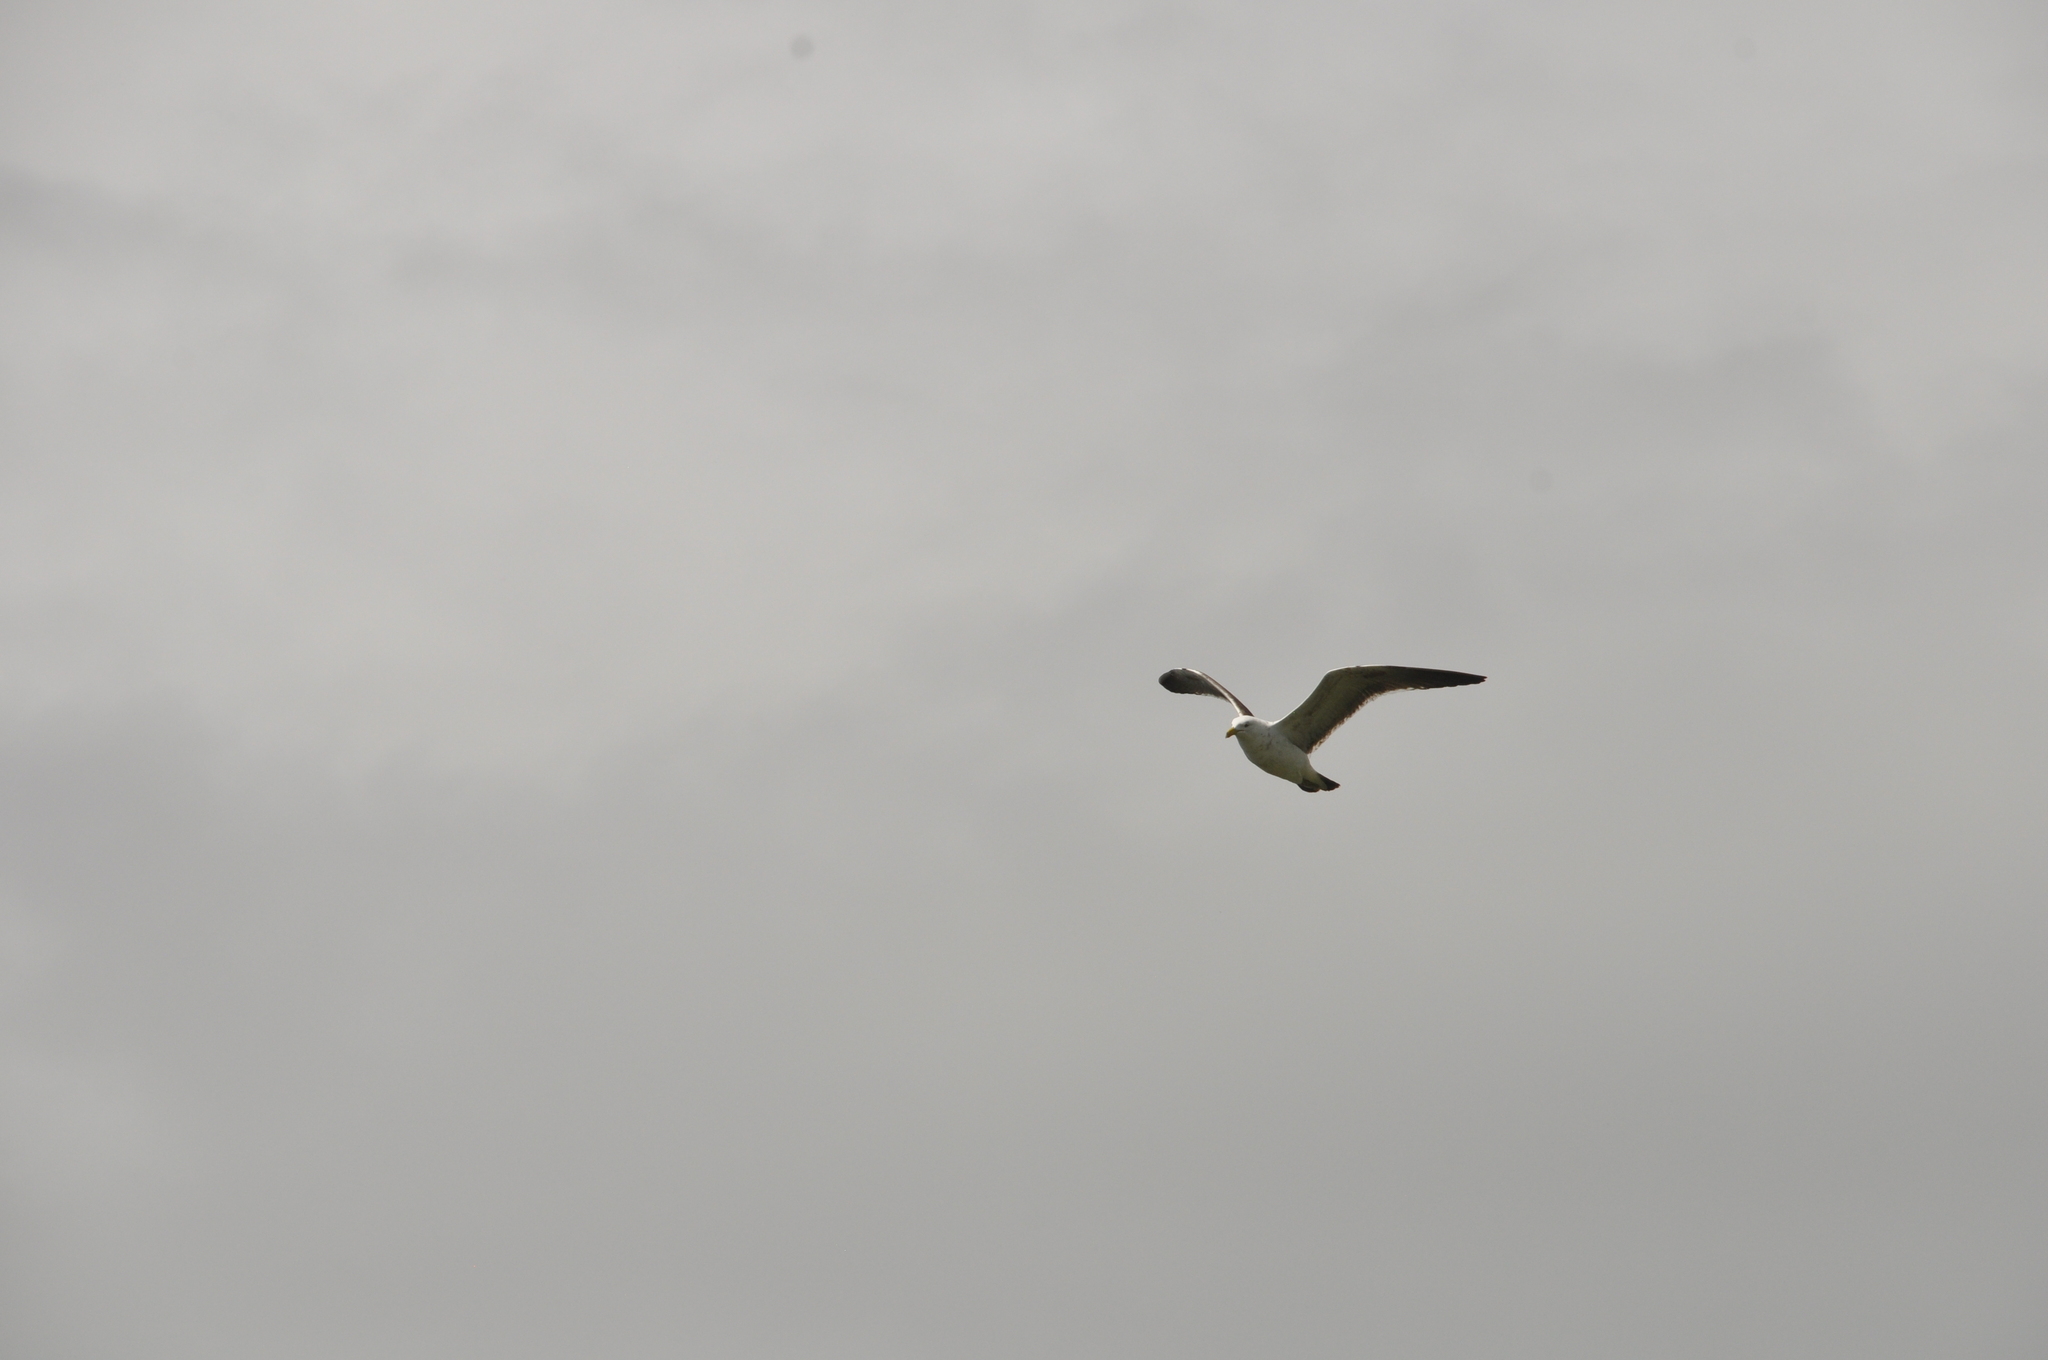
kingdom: Animalia
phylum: Chordata
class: Aves
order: Charadriiformes
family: Laridae
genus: Larus
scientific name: Larus dominicanus
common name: Kelp gull
